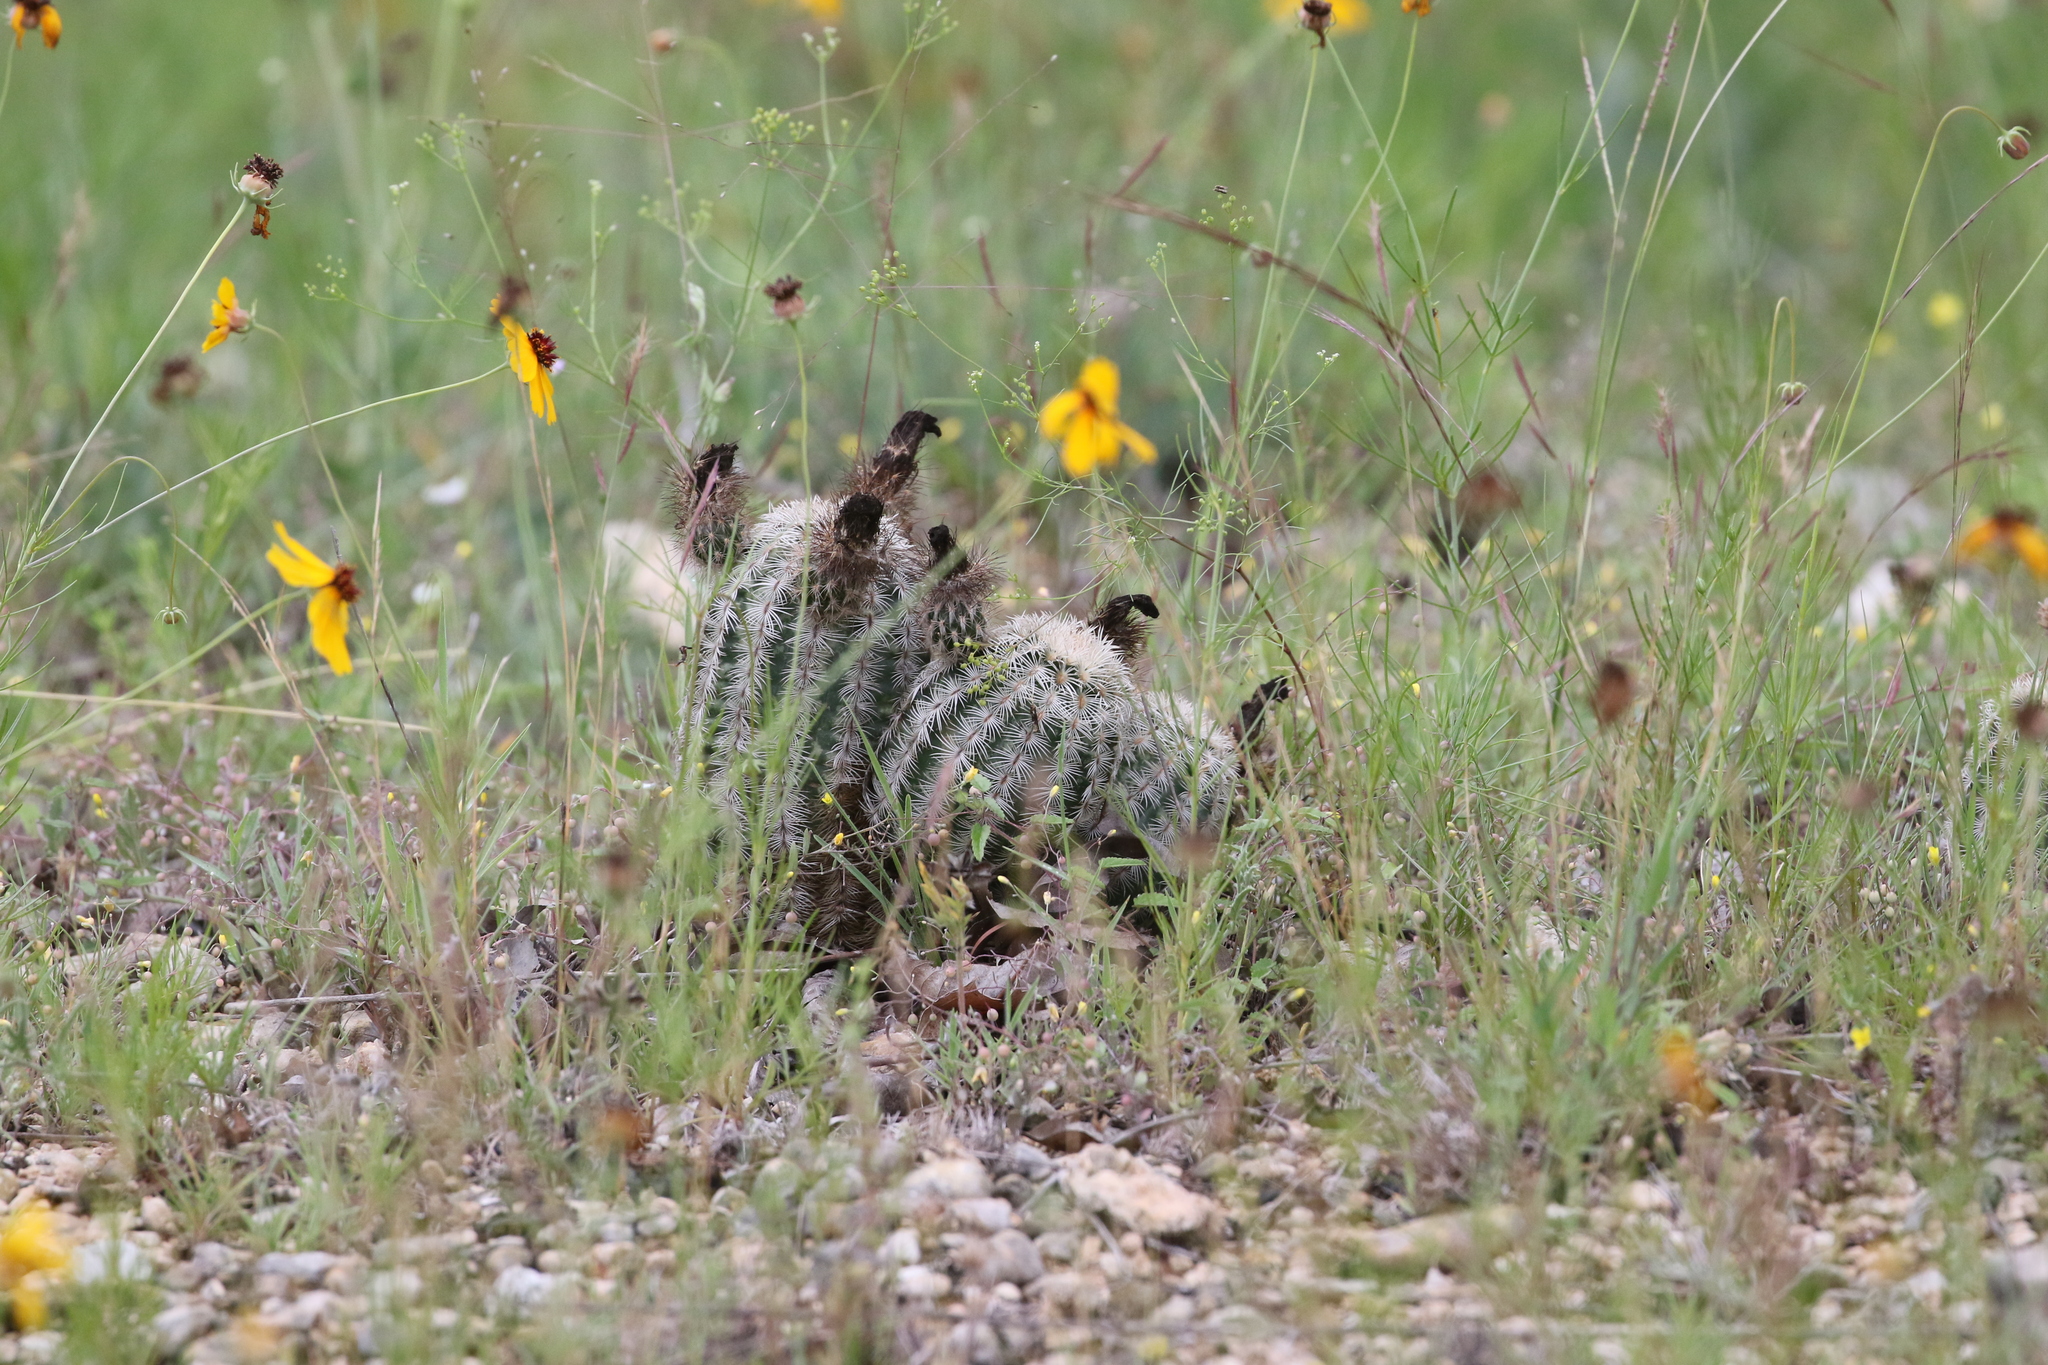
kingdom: Plantae
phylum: Tracheophyta
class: Magnoliopsida
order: Caryophyllales
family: Cactaceae
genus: Echinocereus
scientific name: Echinocereus reichenbachii
